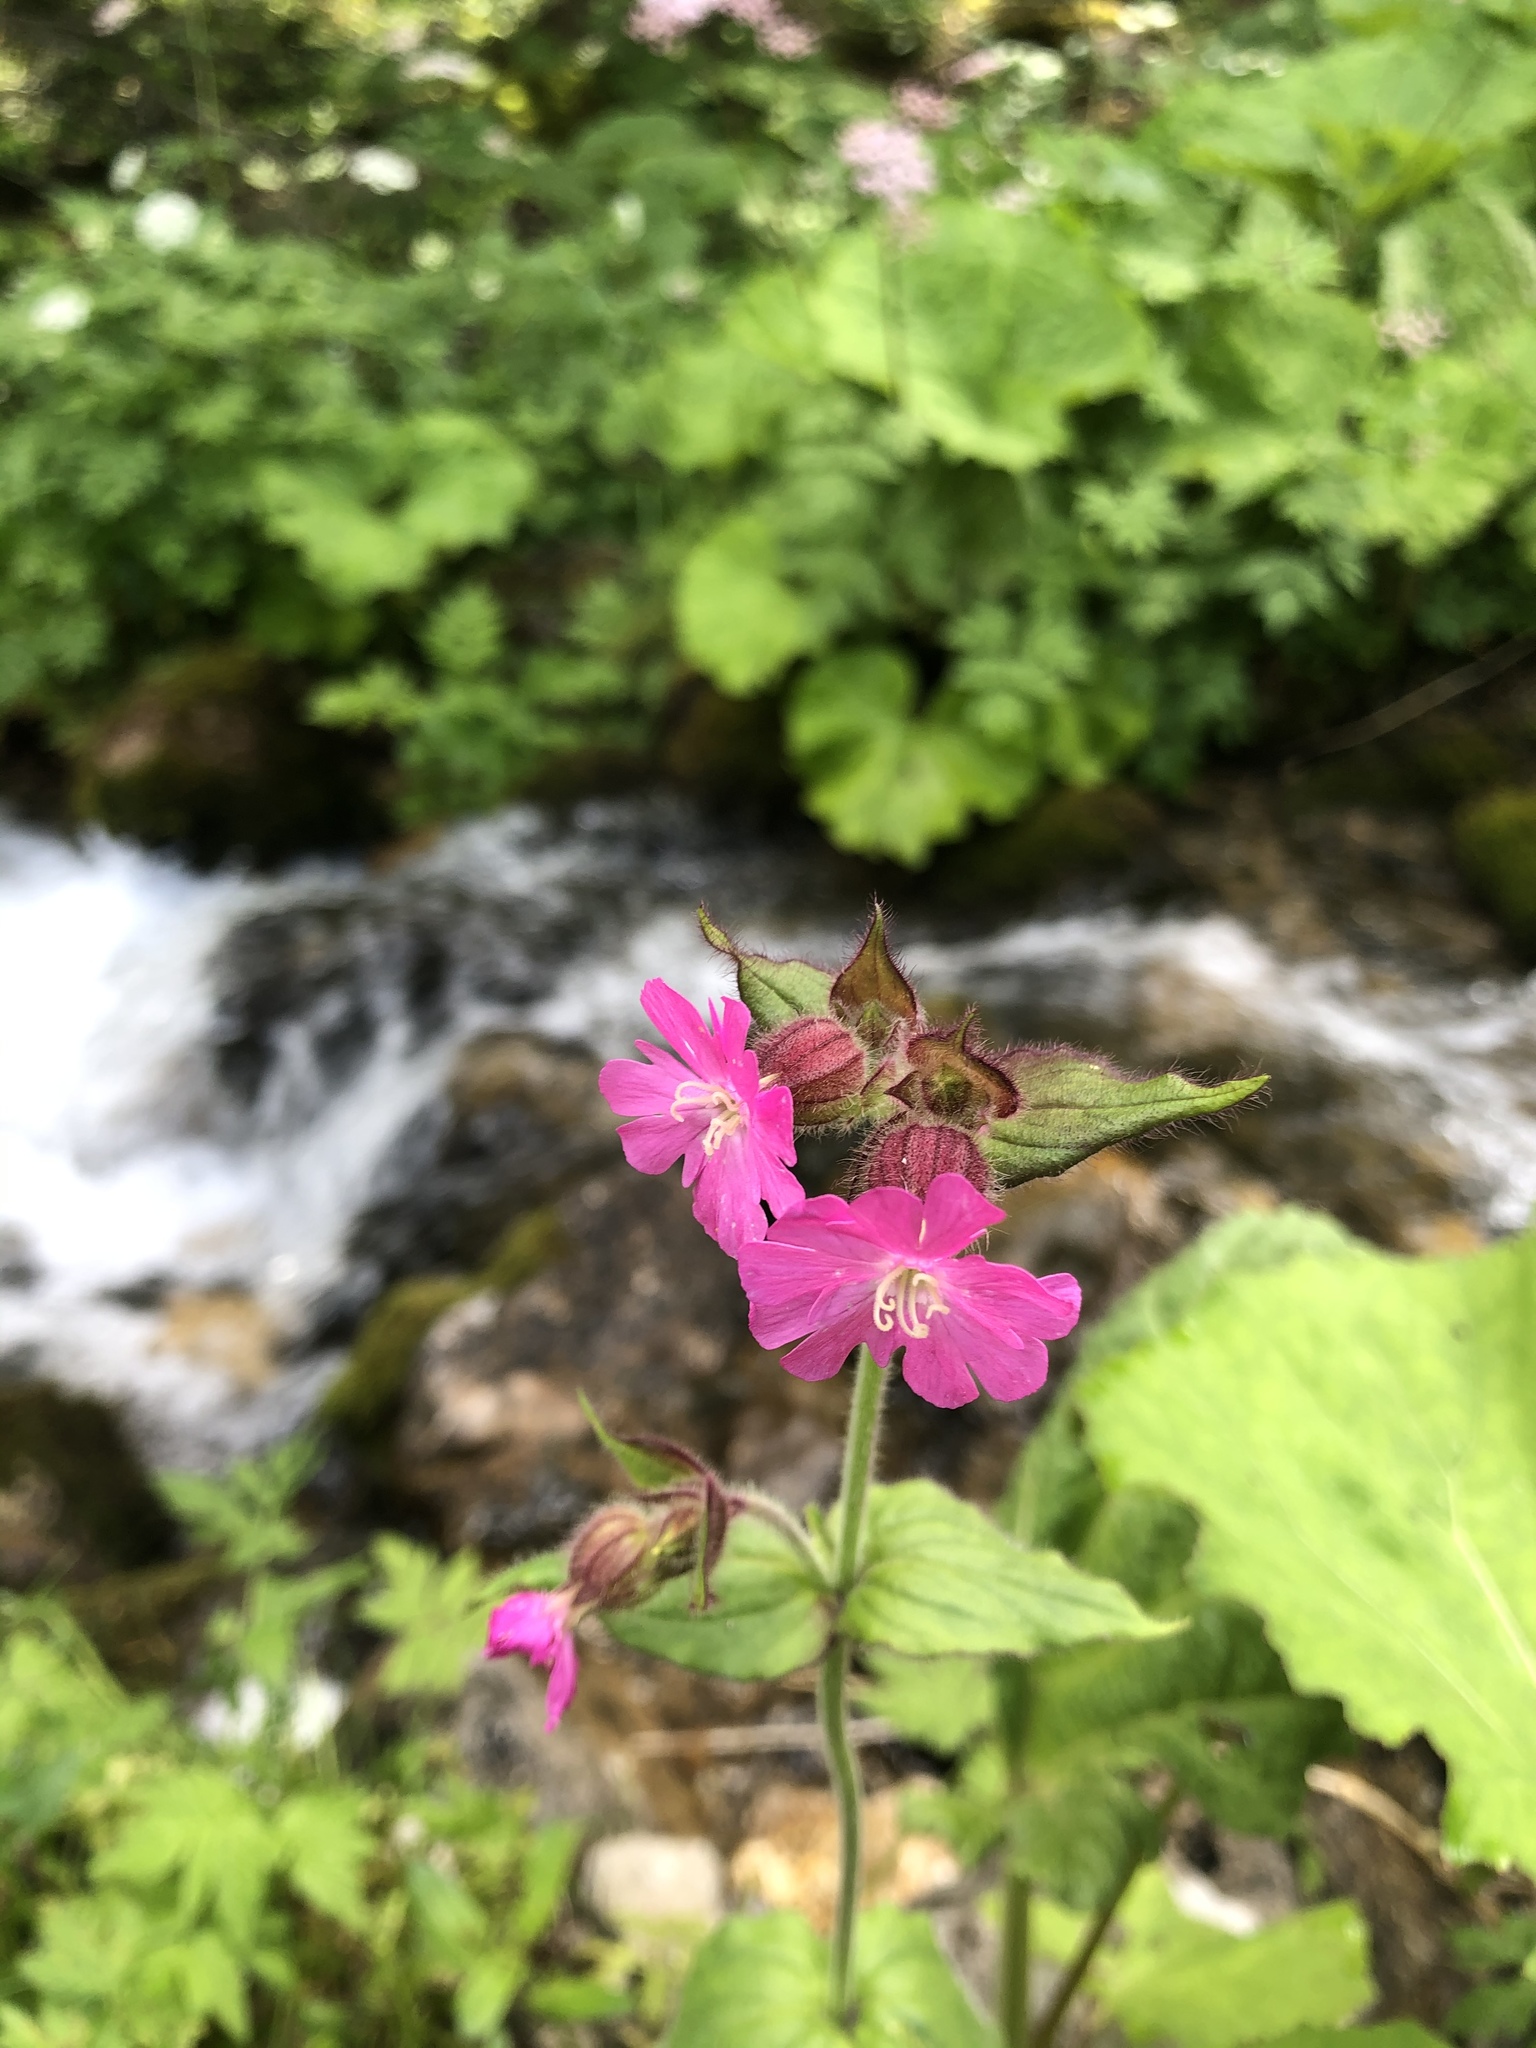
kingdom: Plantae
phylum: Tracheophyta
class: Magnoliopsida
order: Caryophyllales
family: Caryophyllaceae
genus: Silene
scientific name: Silene dioica
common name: Red campion
